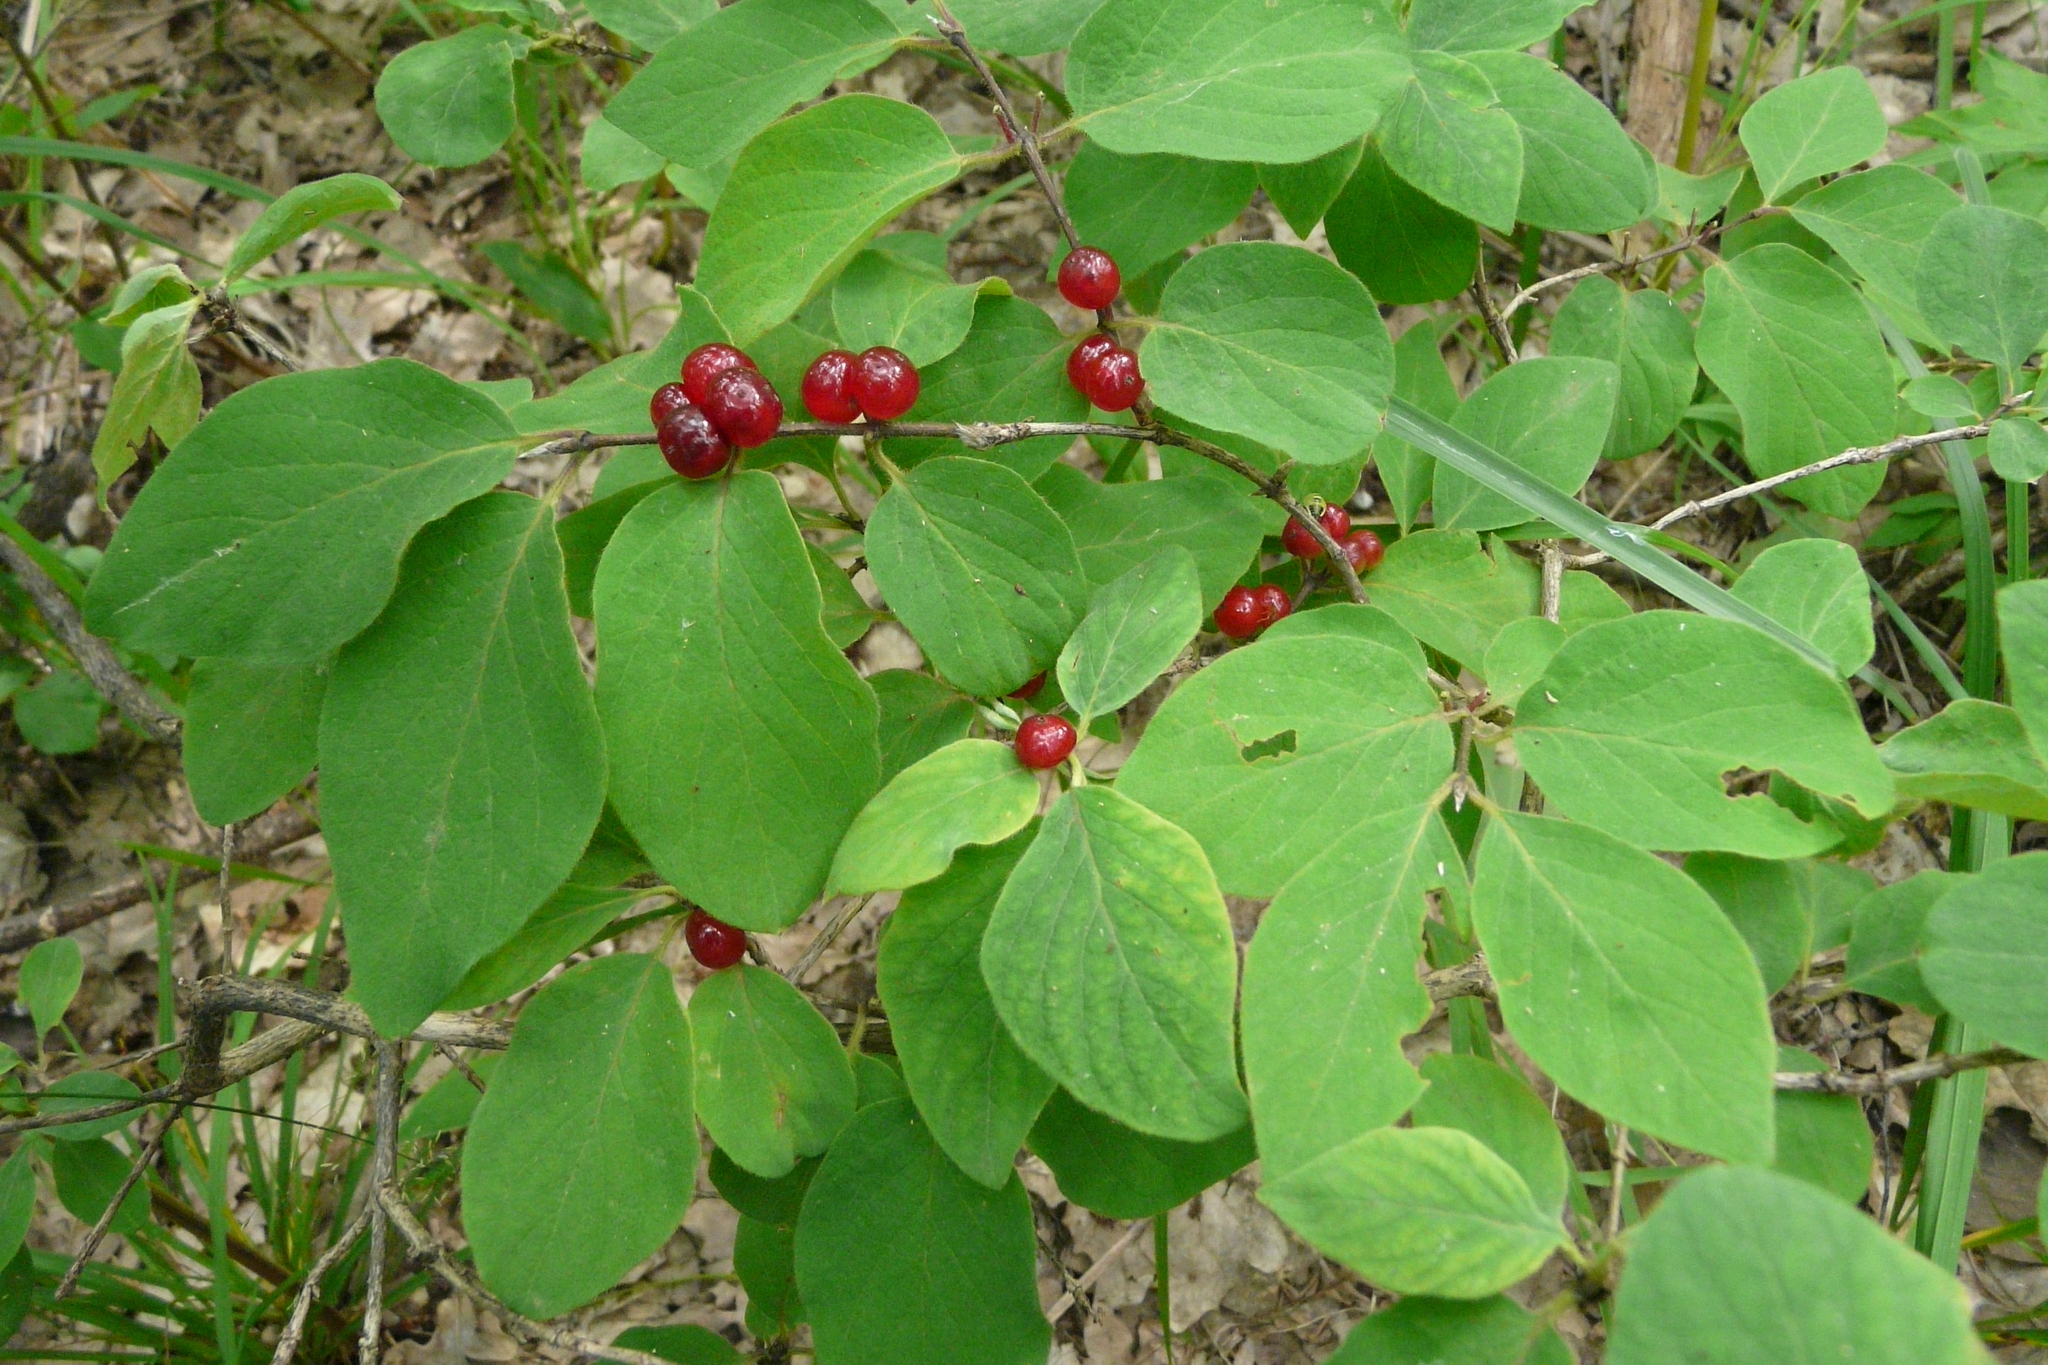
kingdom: Plantae
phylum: Tracheophyta
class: Magnoliopsida
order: Dipsacales
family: Caprifoliaceae
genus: Lonicera
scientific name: Lonicera xylosteum
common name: Fly honeysuckle
